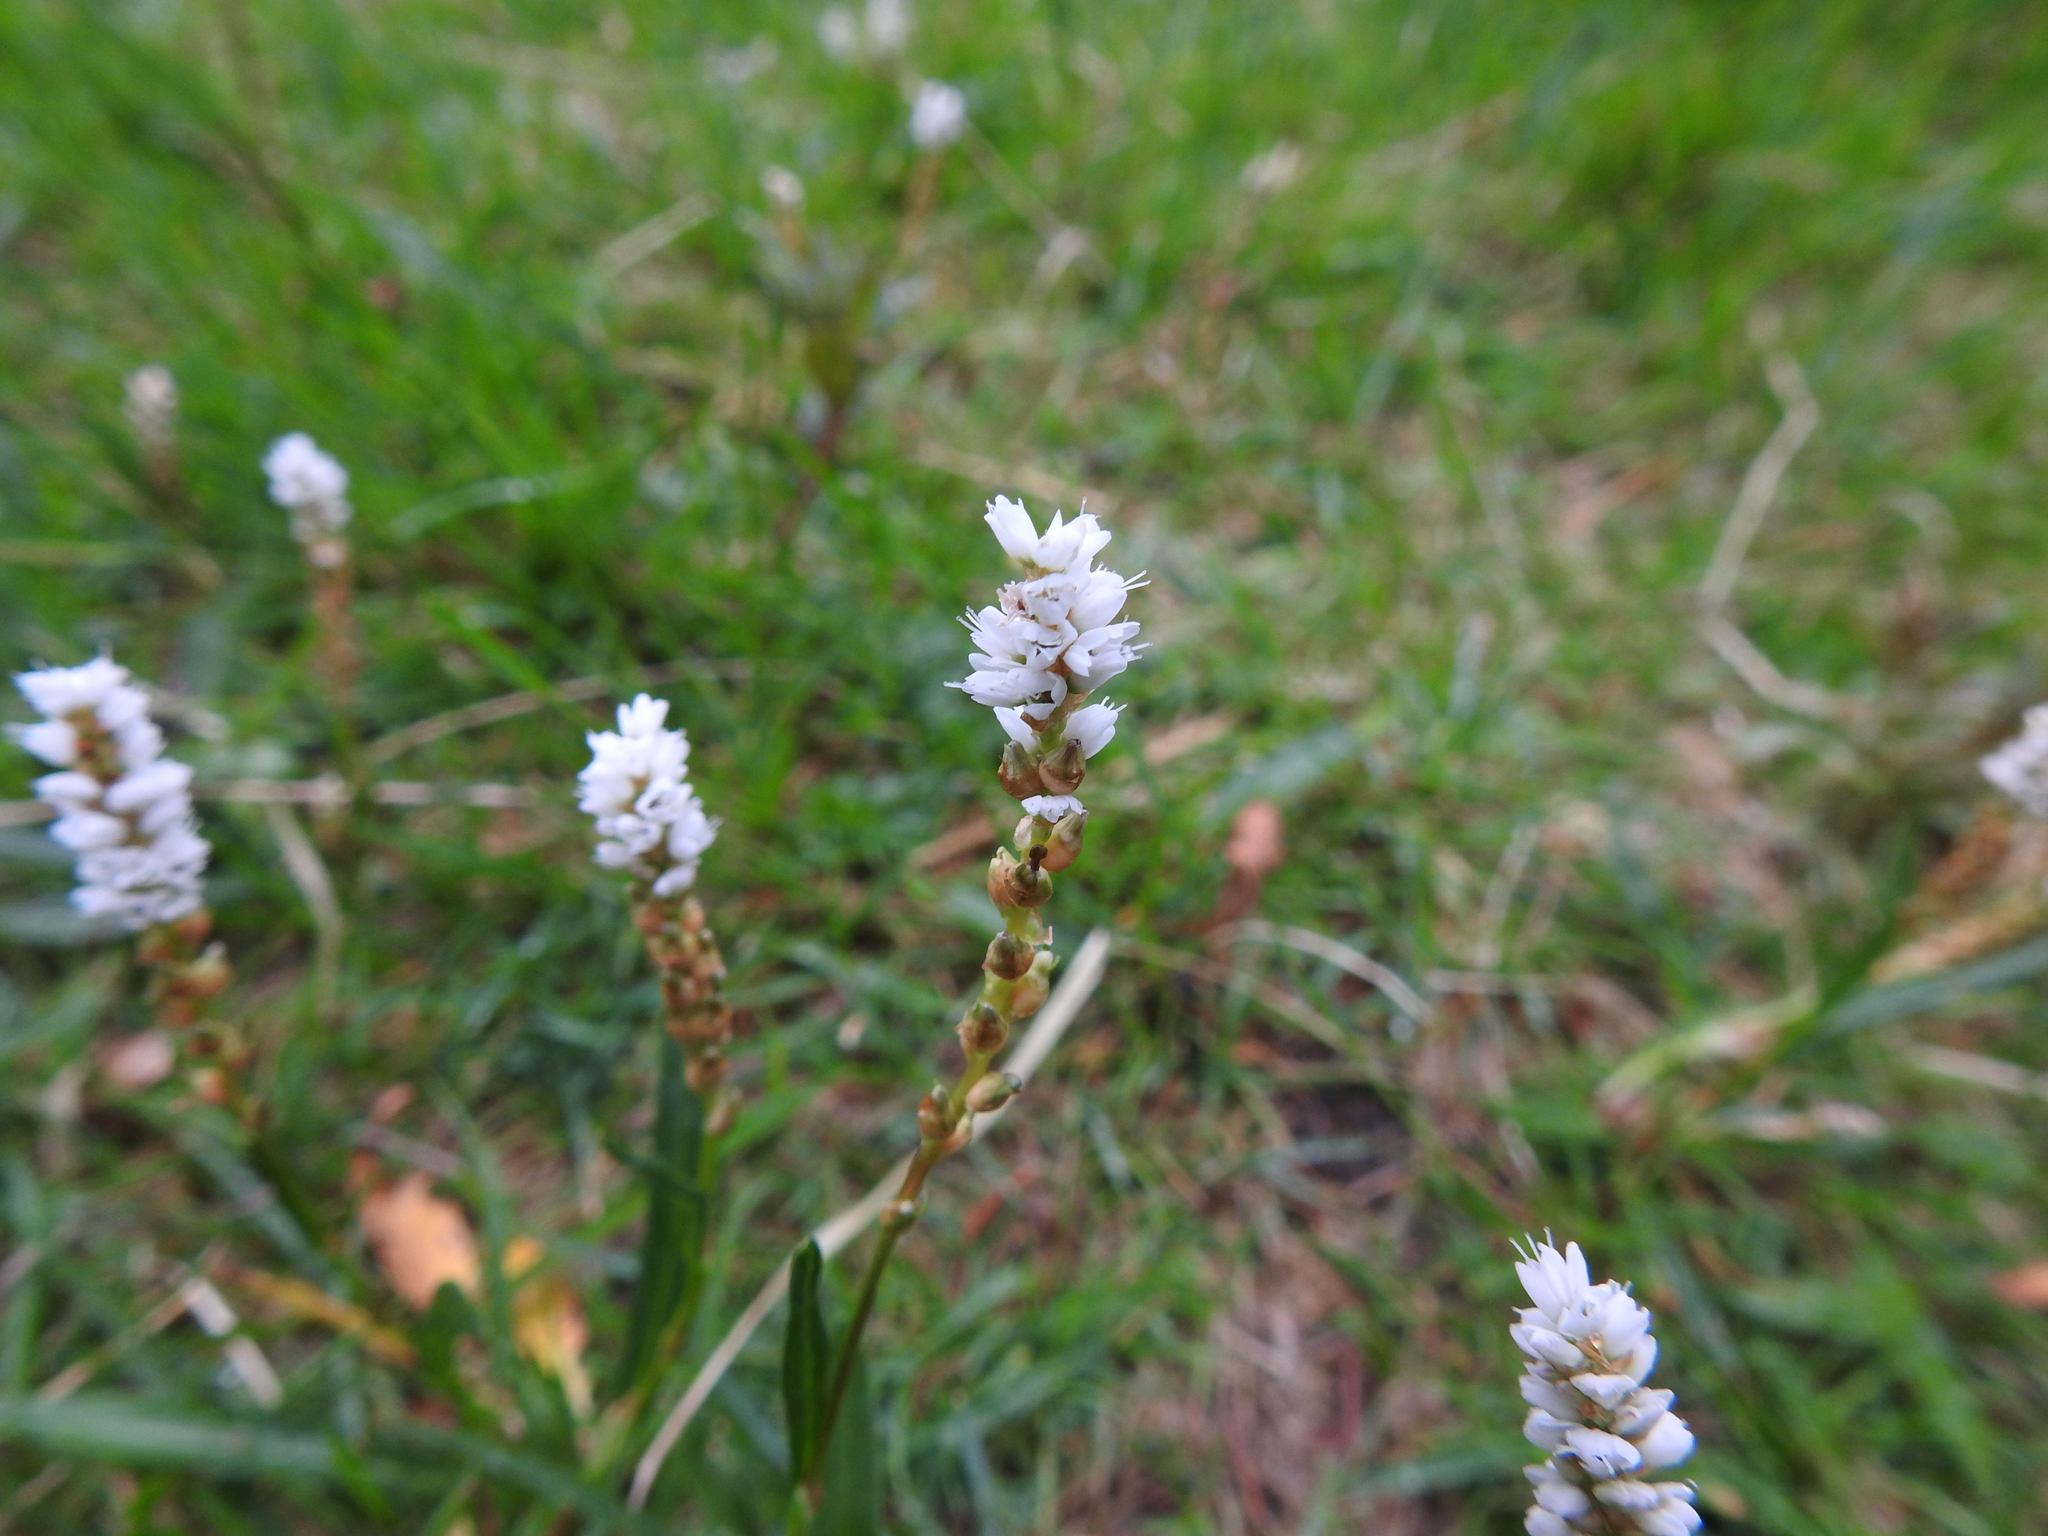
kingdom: Plantae
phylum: Tracheophyta
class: Magnoliopsida
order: Caryophyllales
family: Polygonaceae
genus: Bistorta
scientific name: Bistorta vivipara
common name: Alpine bistort
